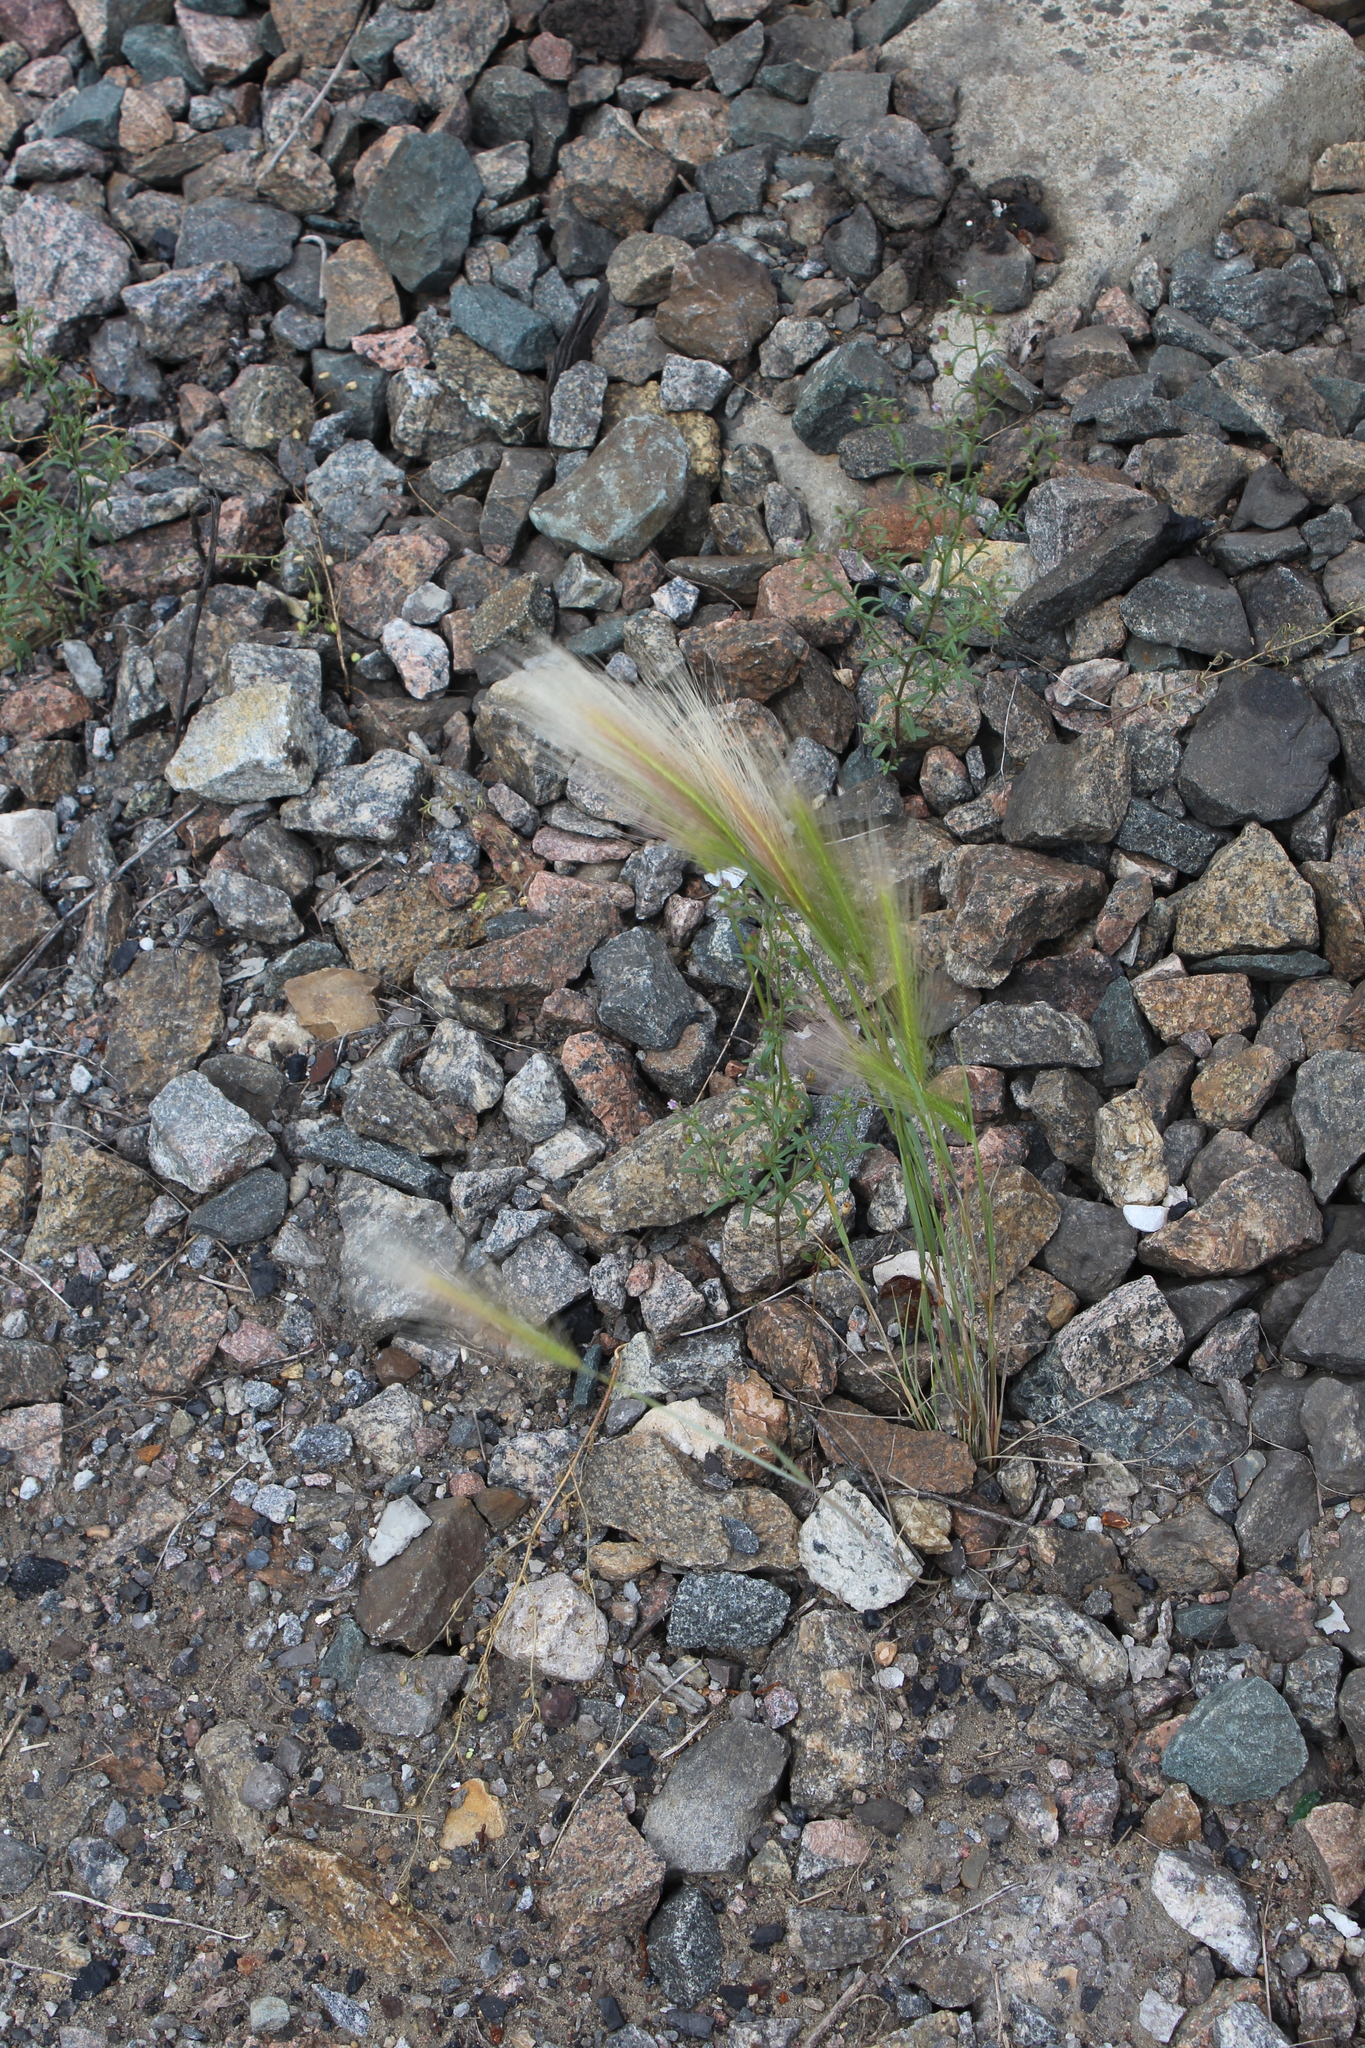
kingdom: Plantae
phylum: Tracheophyta
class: Liliopsida
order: Poales
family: Poaceae
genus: Hordeum
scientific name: Hordeum jubatum
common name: Foxtail barley
